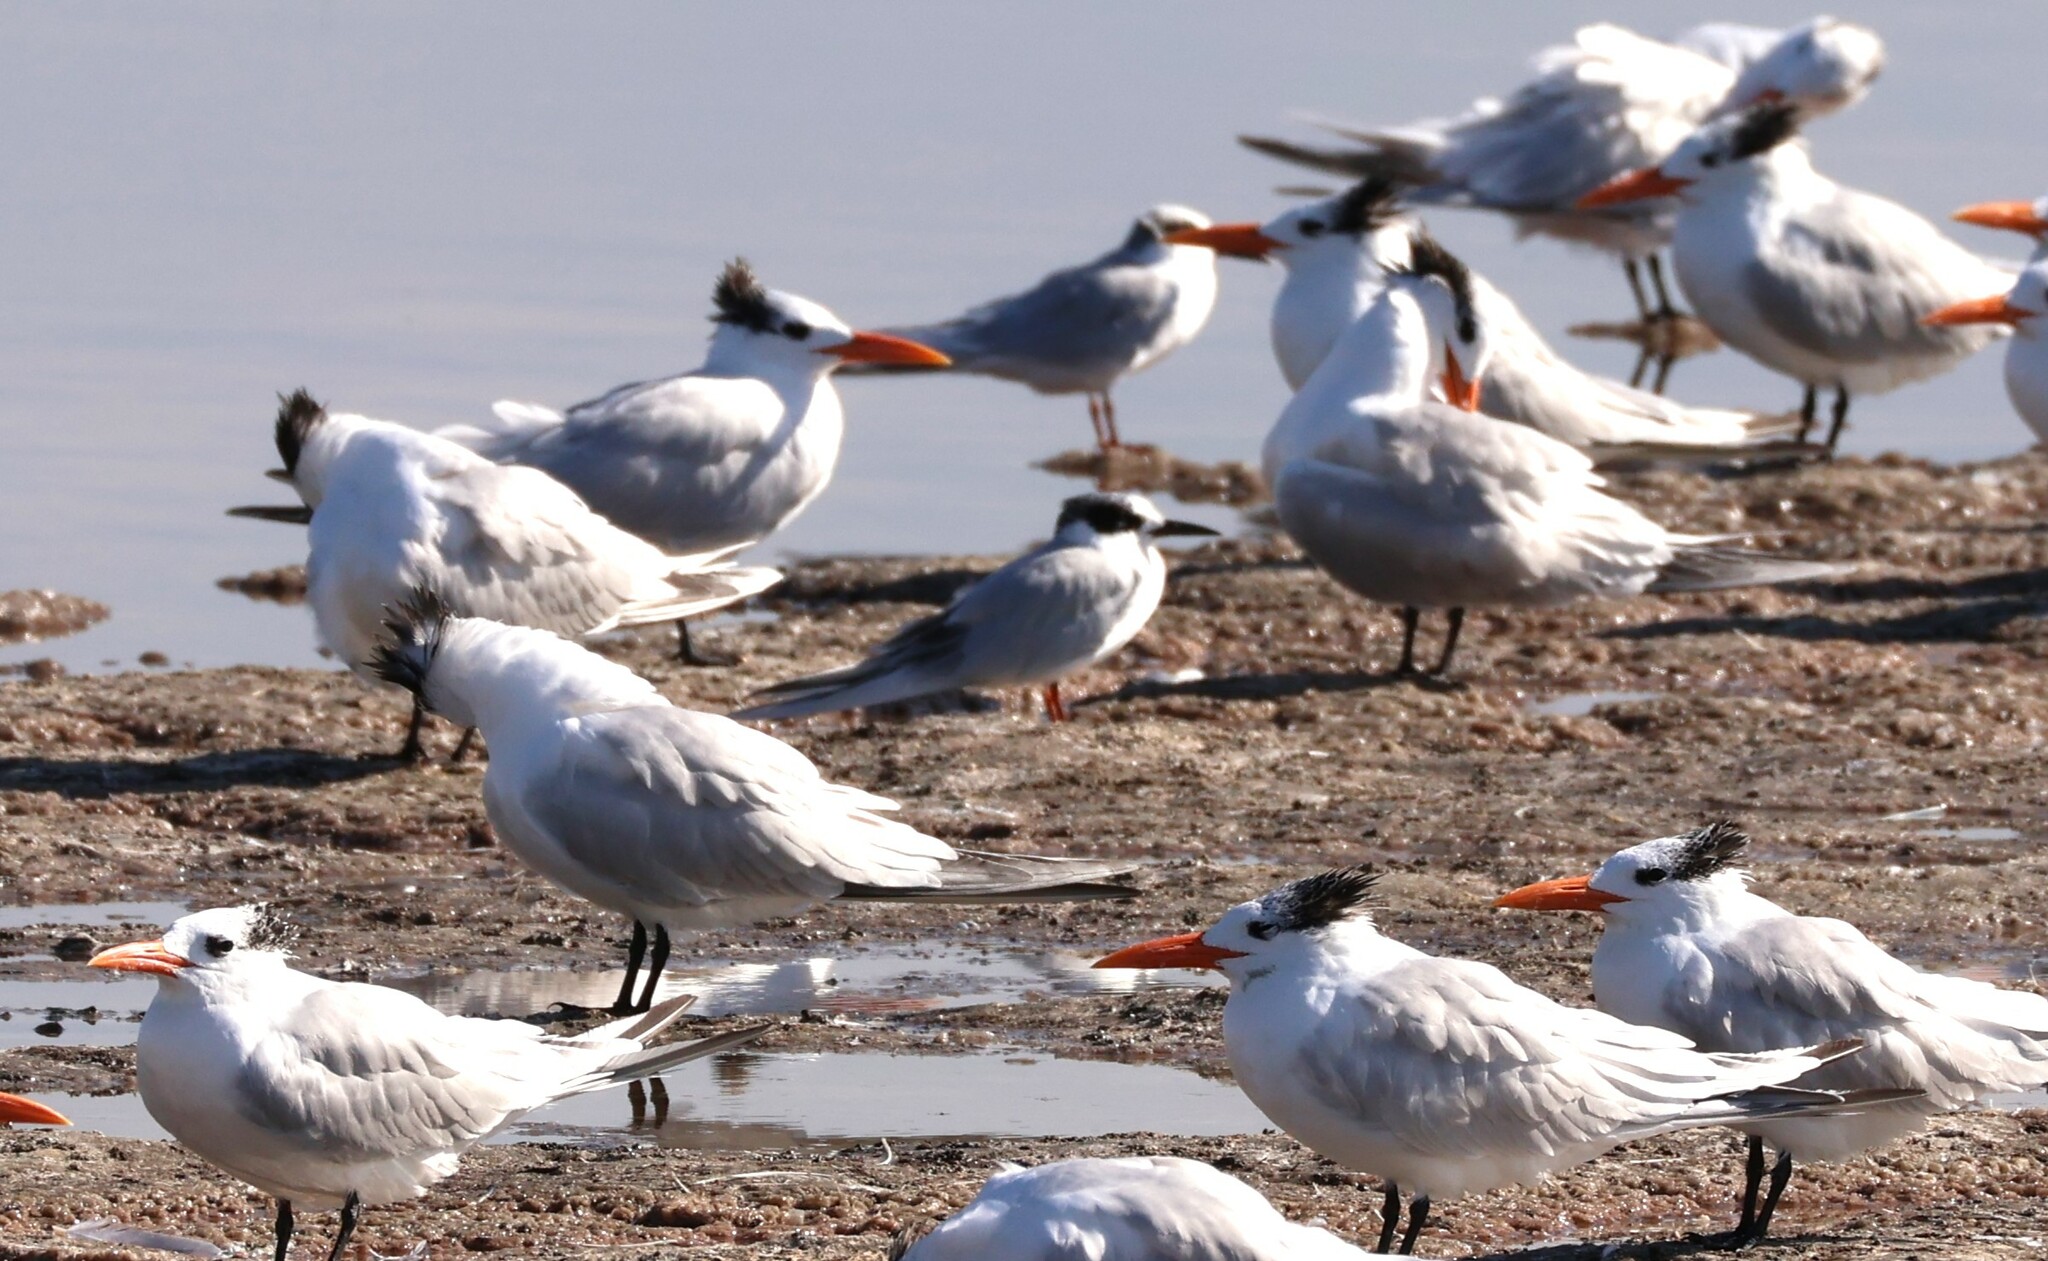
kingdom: Animalia
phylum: Chordata
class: Aves
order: Charadriiformes
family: Laridae
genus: Sterna
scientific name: Sterna forsteri
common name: Forster's tern
